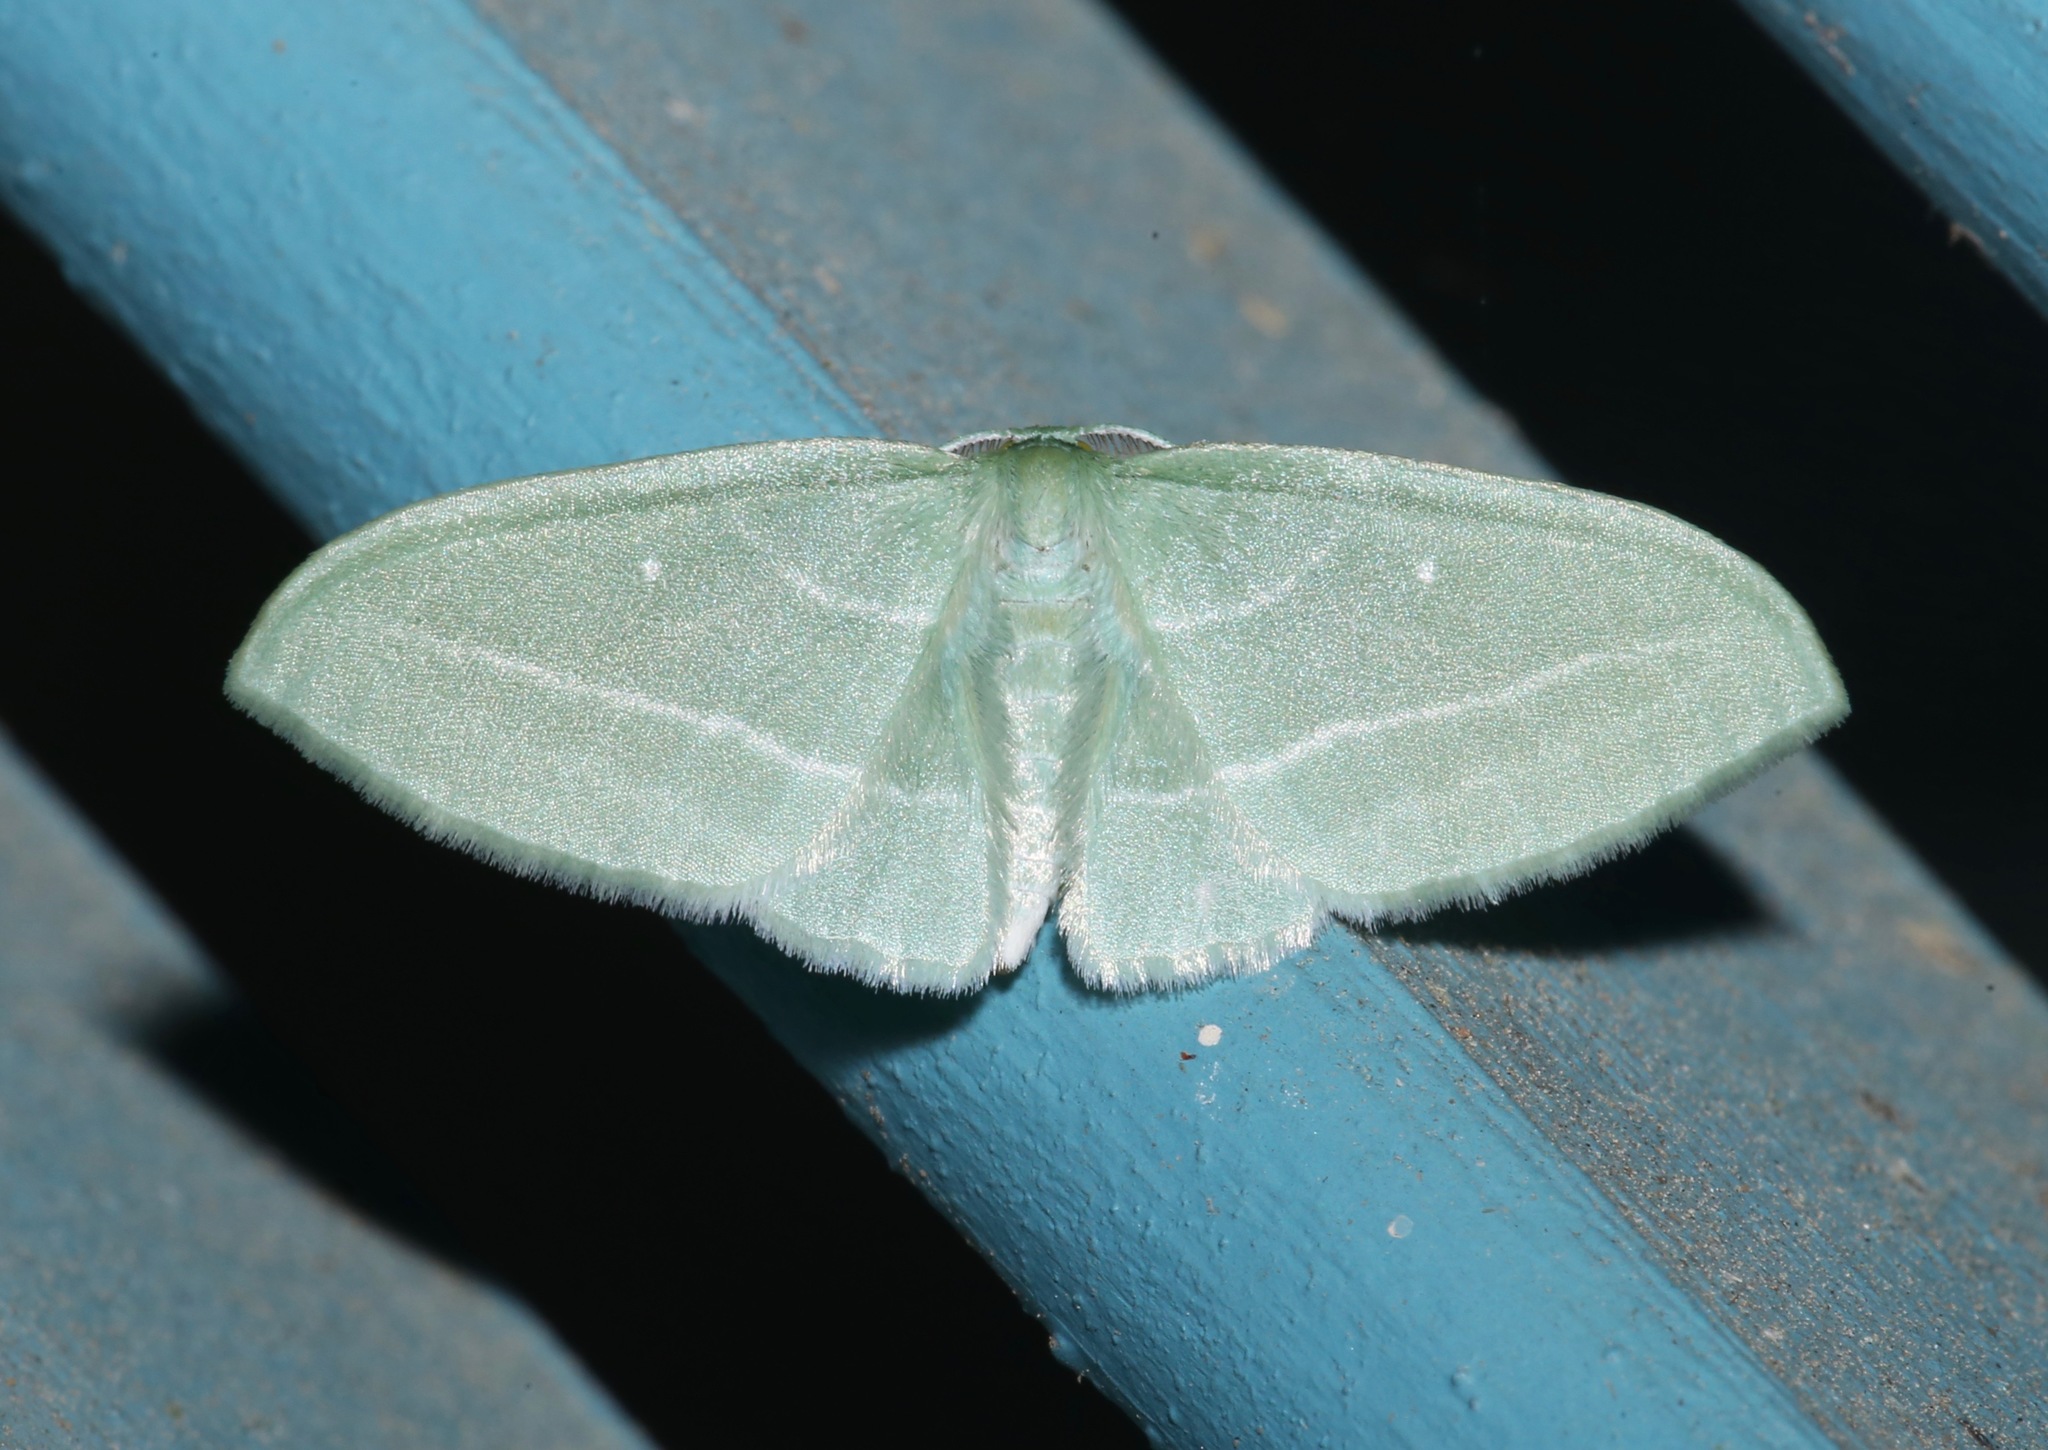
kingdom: Animalia
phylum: Arthropoda
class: Insecta
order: Lepidoptera
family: Geometridae
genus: Dyspteris
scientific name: Dyspteris abortivaria
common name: Bad-wing
